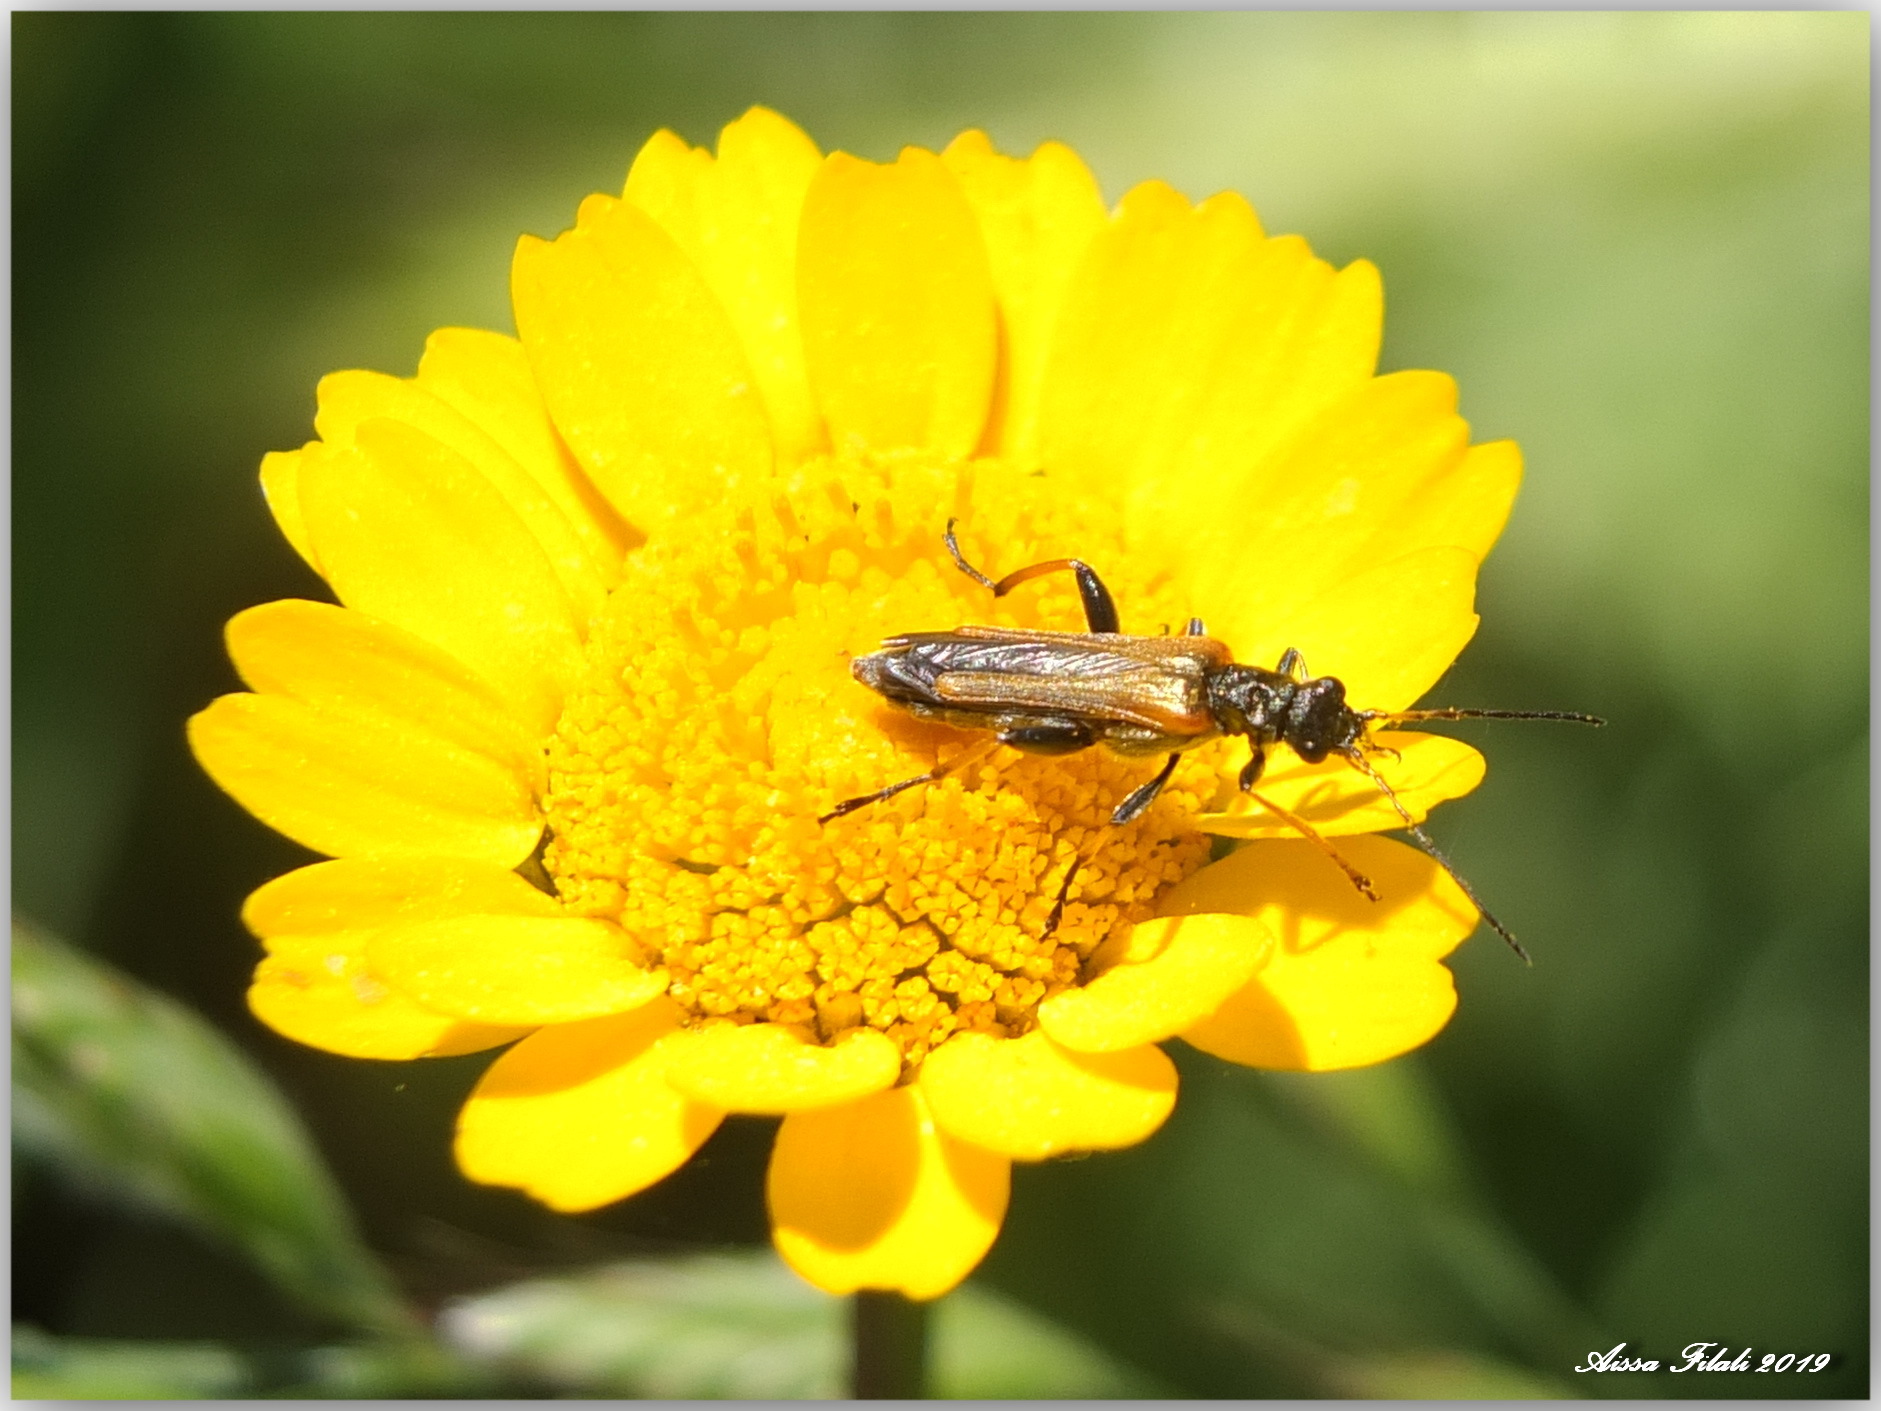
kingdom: Animalia
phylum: Arthropoda
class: Insecta
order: Coleoptera
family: Oedemeridae
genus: Oedemera
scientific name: Oedemera simplex
